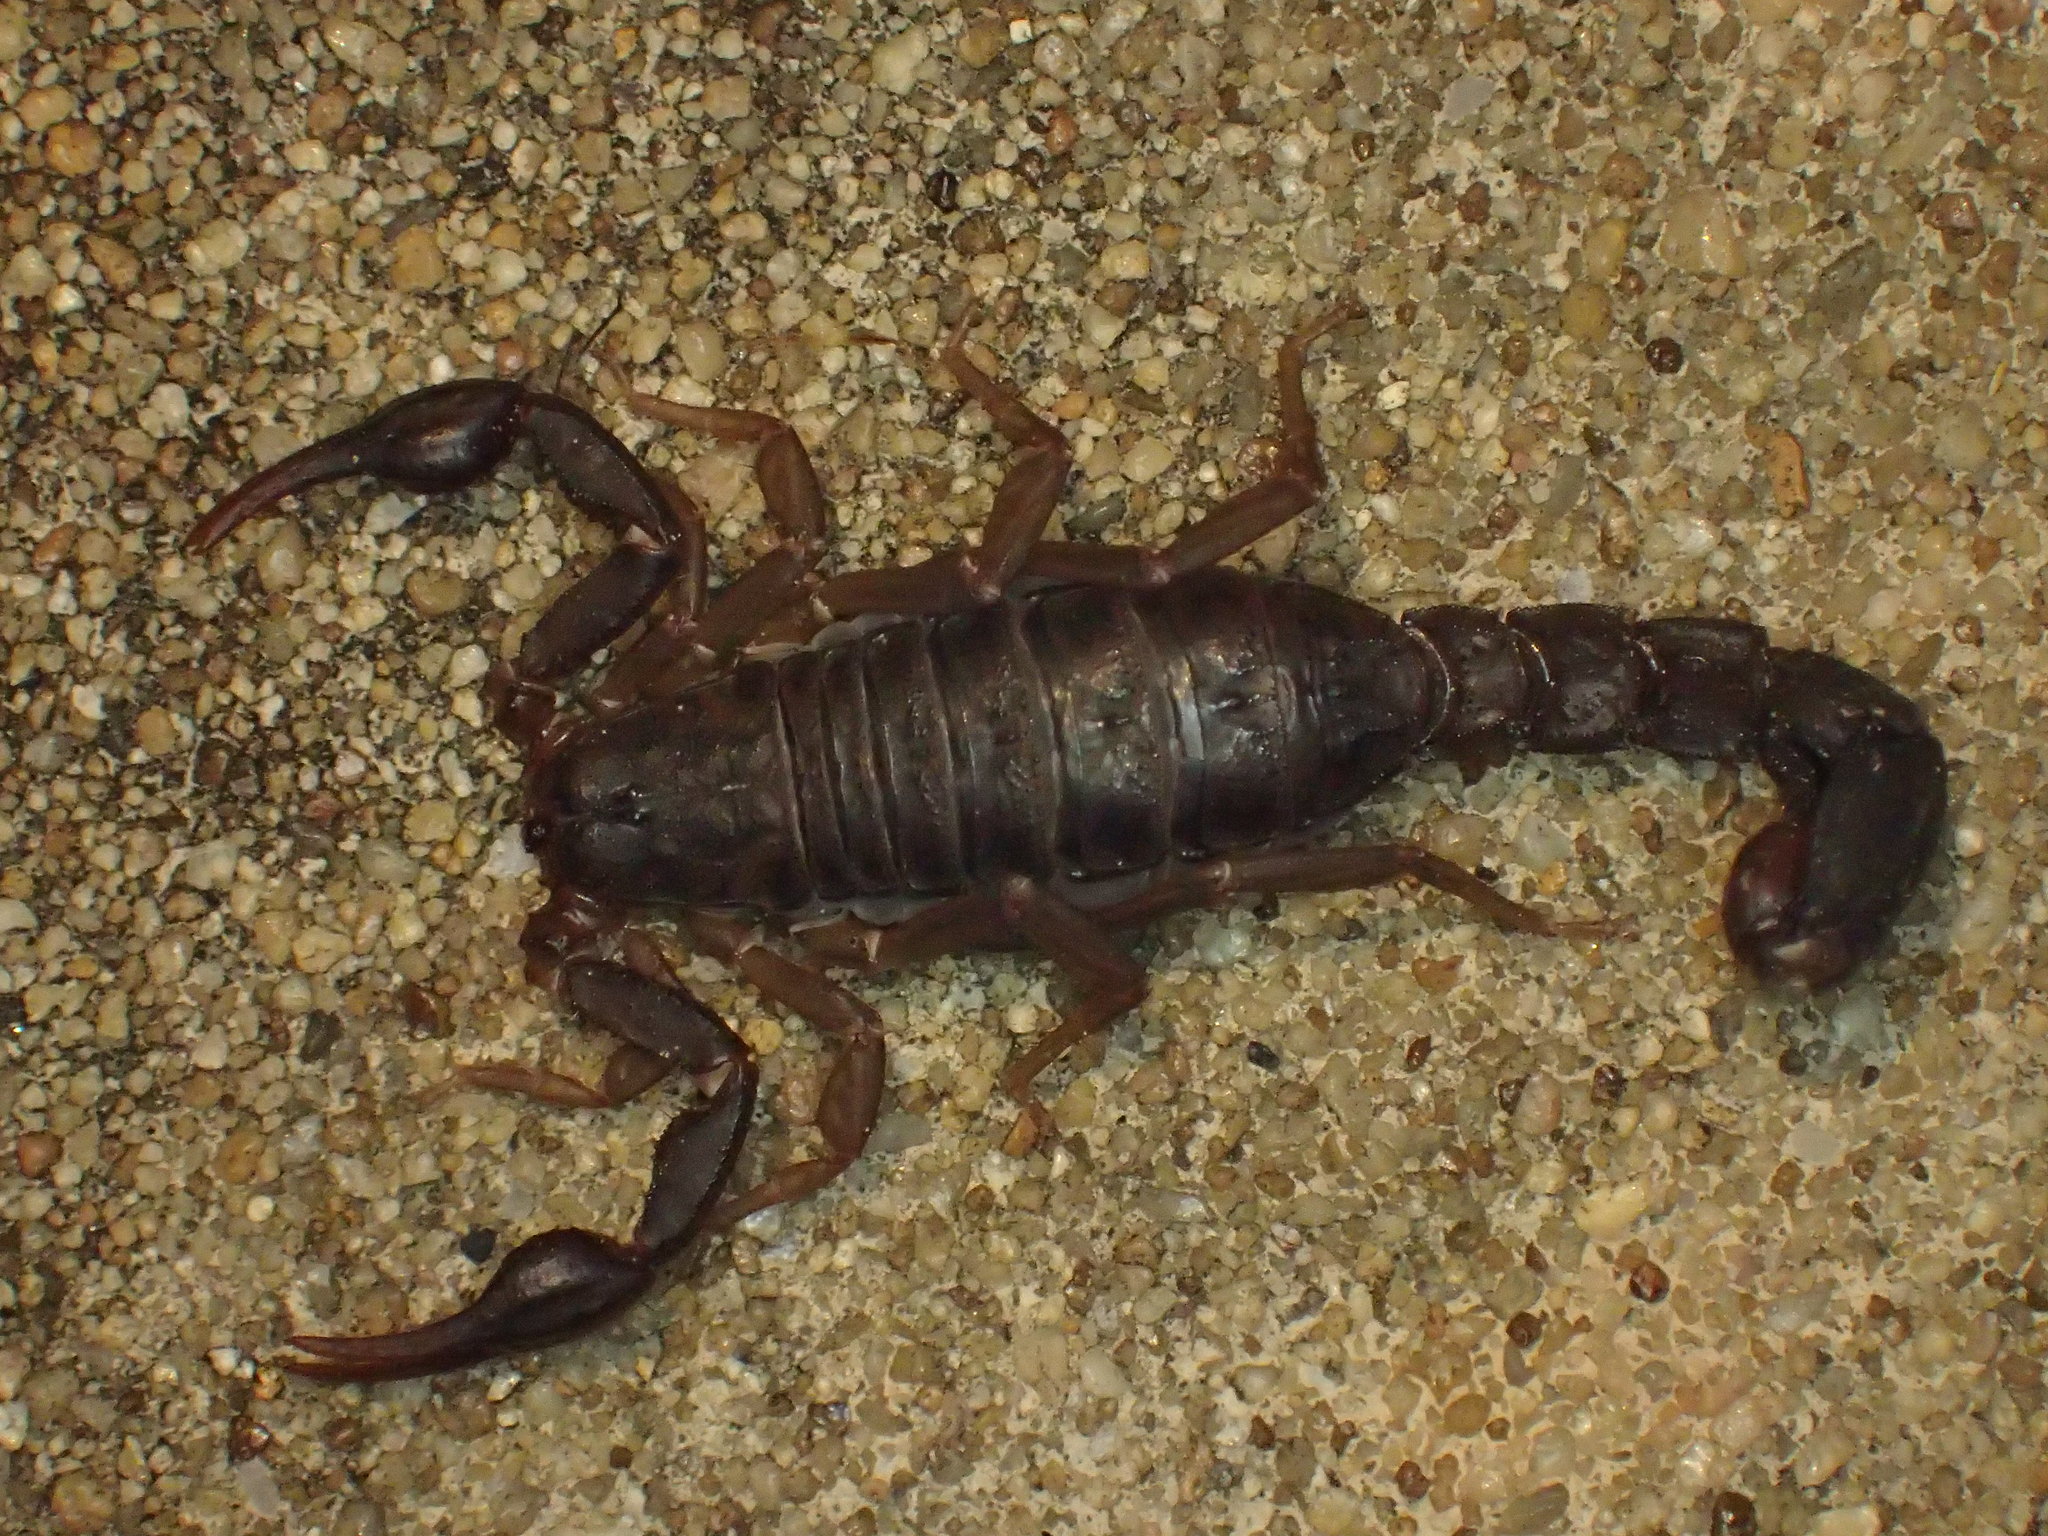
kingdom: Animalia
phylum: Arthropoda
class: Arachnida
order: Scorpiones
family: Vaejovidae
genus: Vaejovis
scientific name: Vaejovis carolinianus
